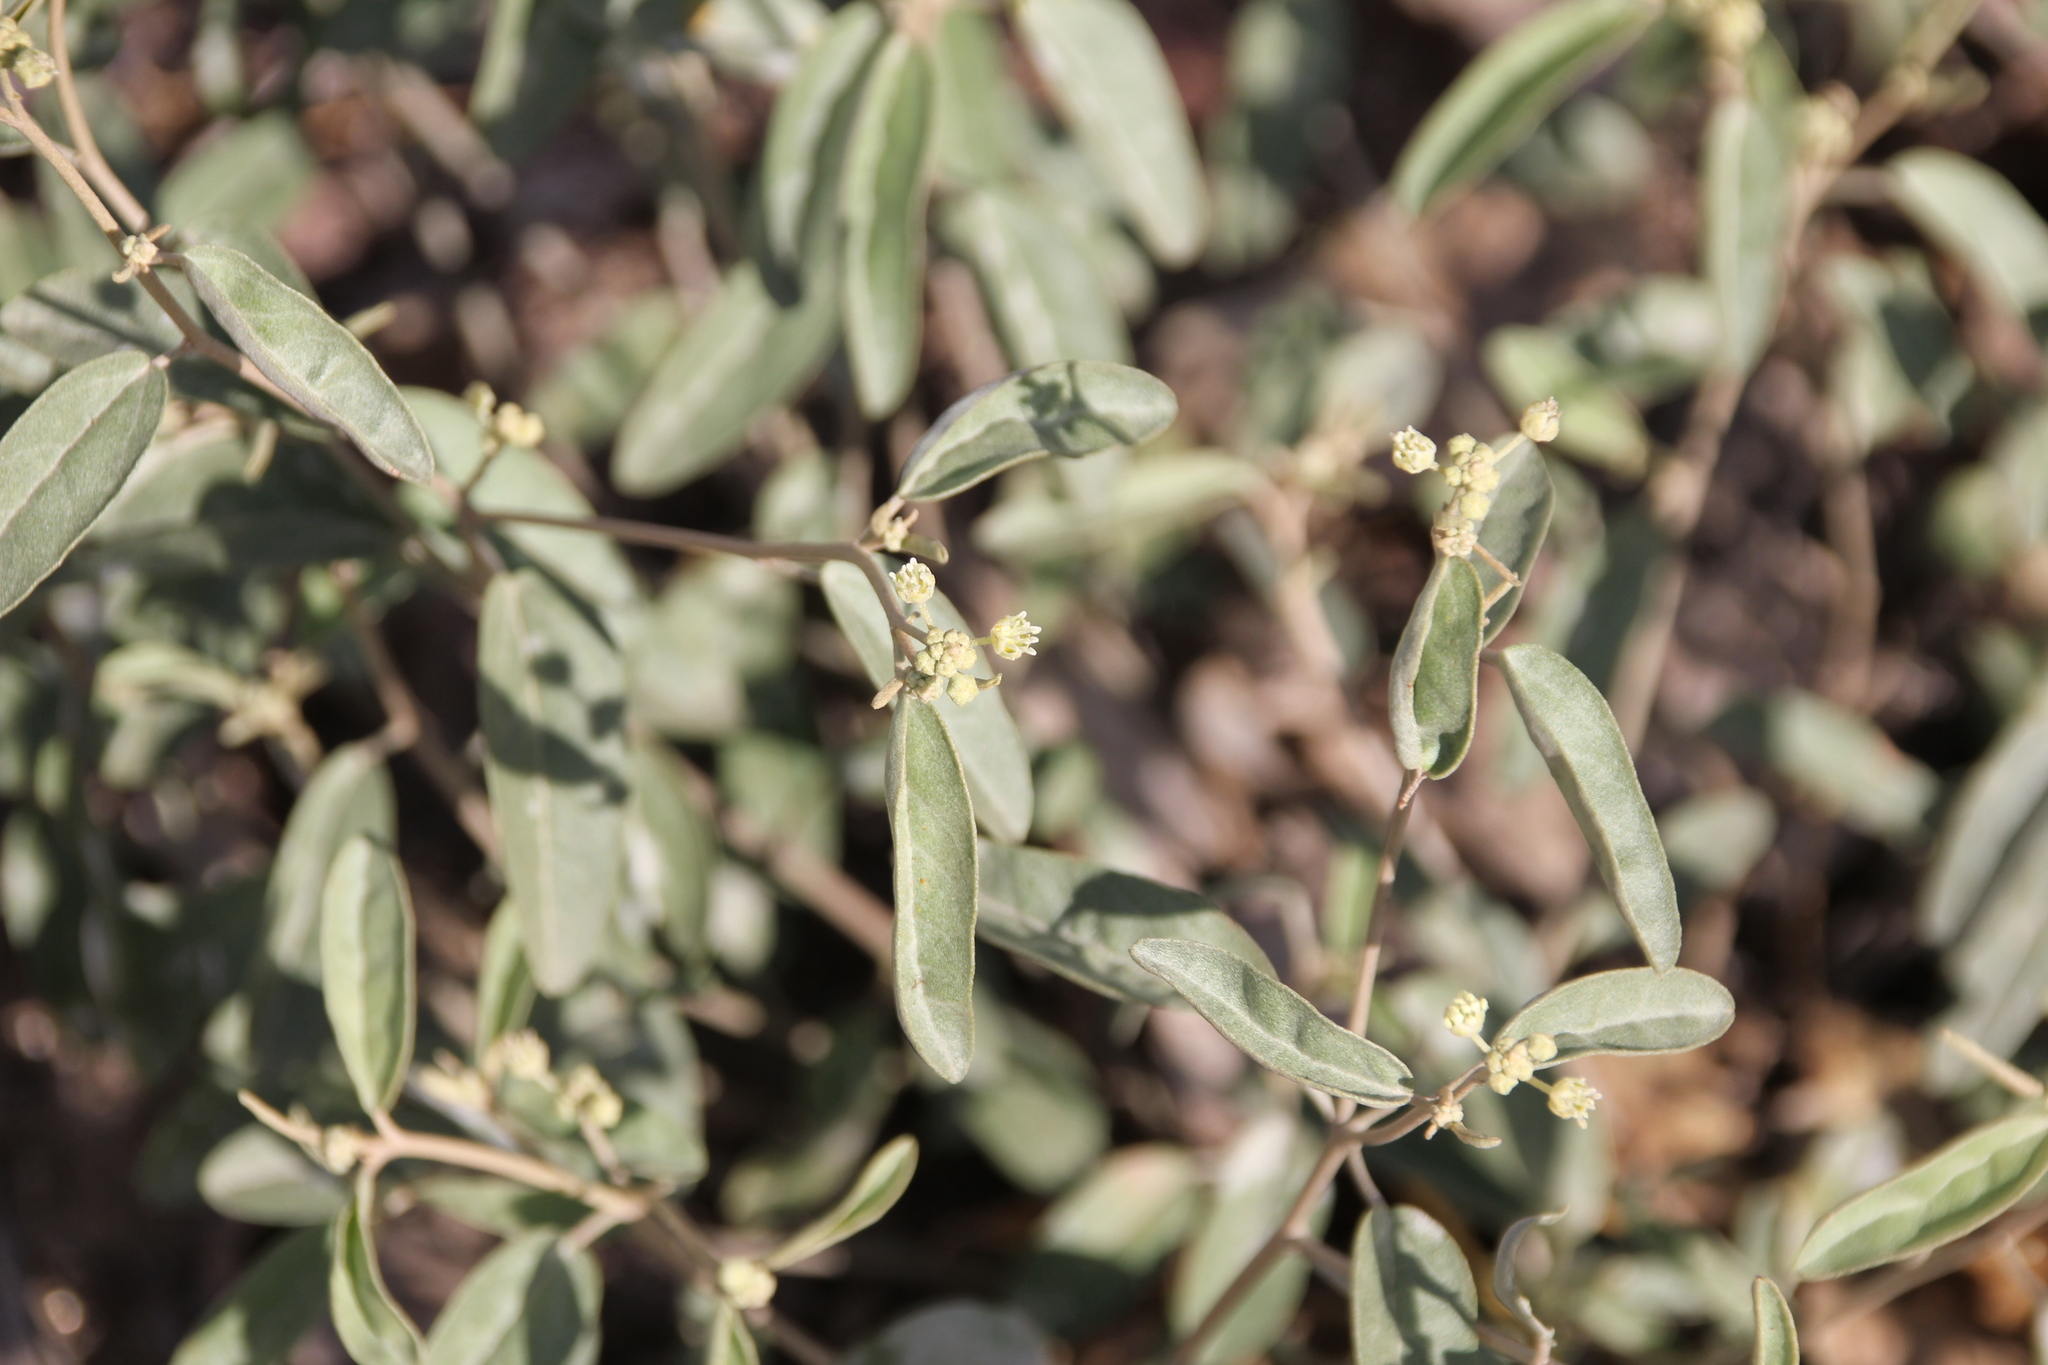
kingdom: Plantae
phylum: Tracheophyta
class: Magnoliopsida
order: Malpighiales
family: Euphorbiaceae
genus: Croton
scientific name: Croton californicus
